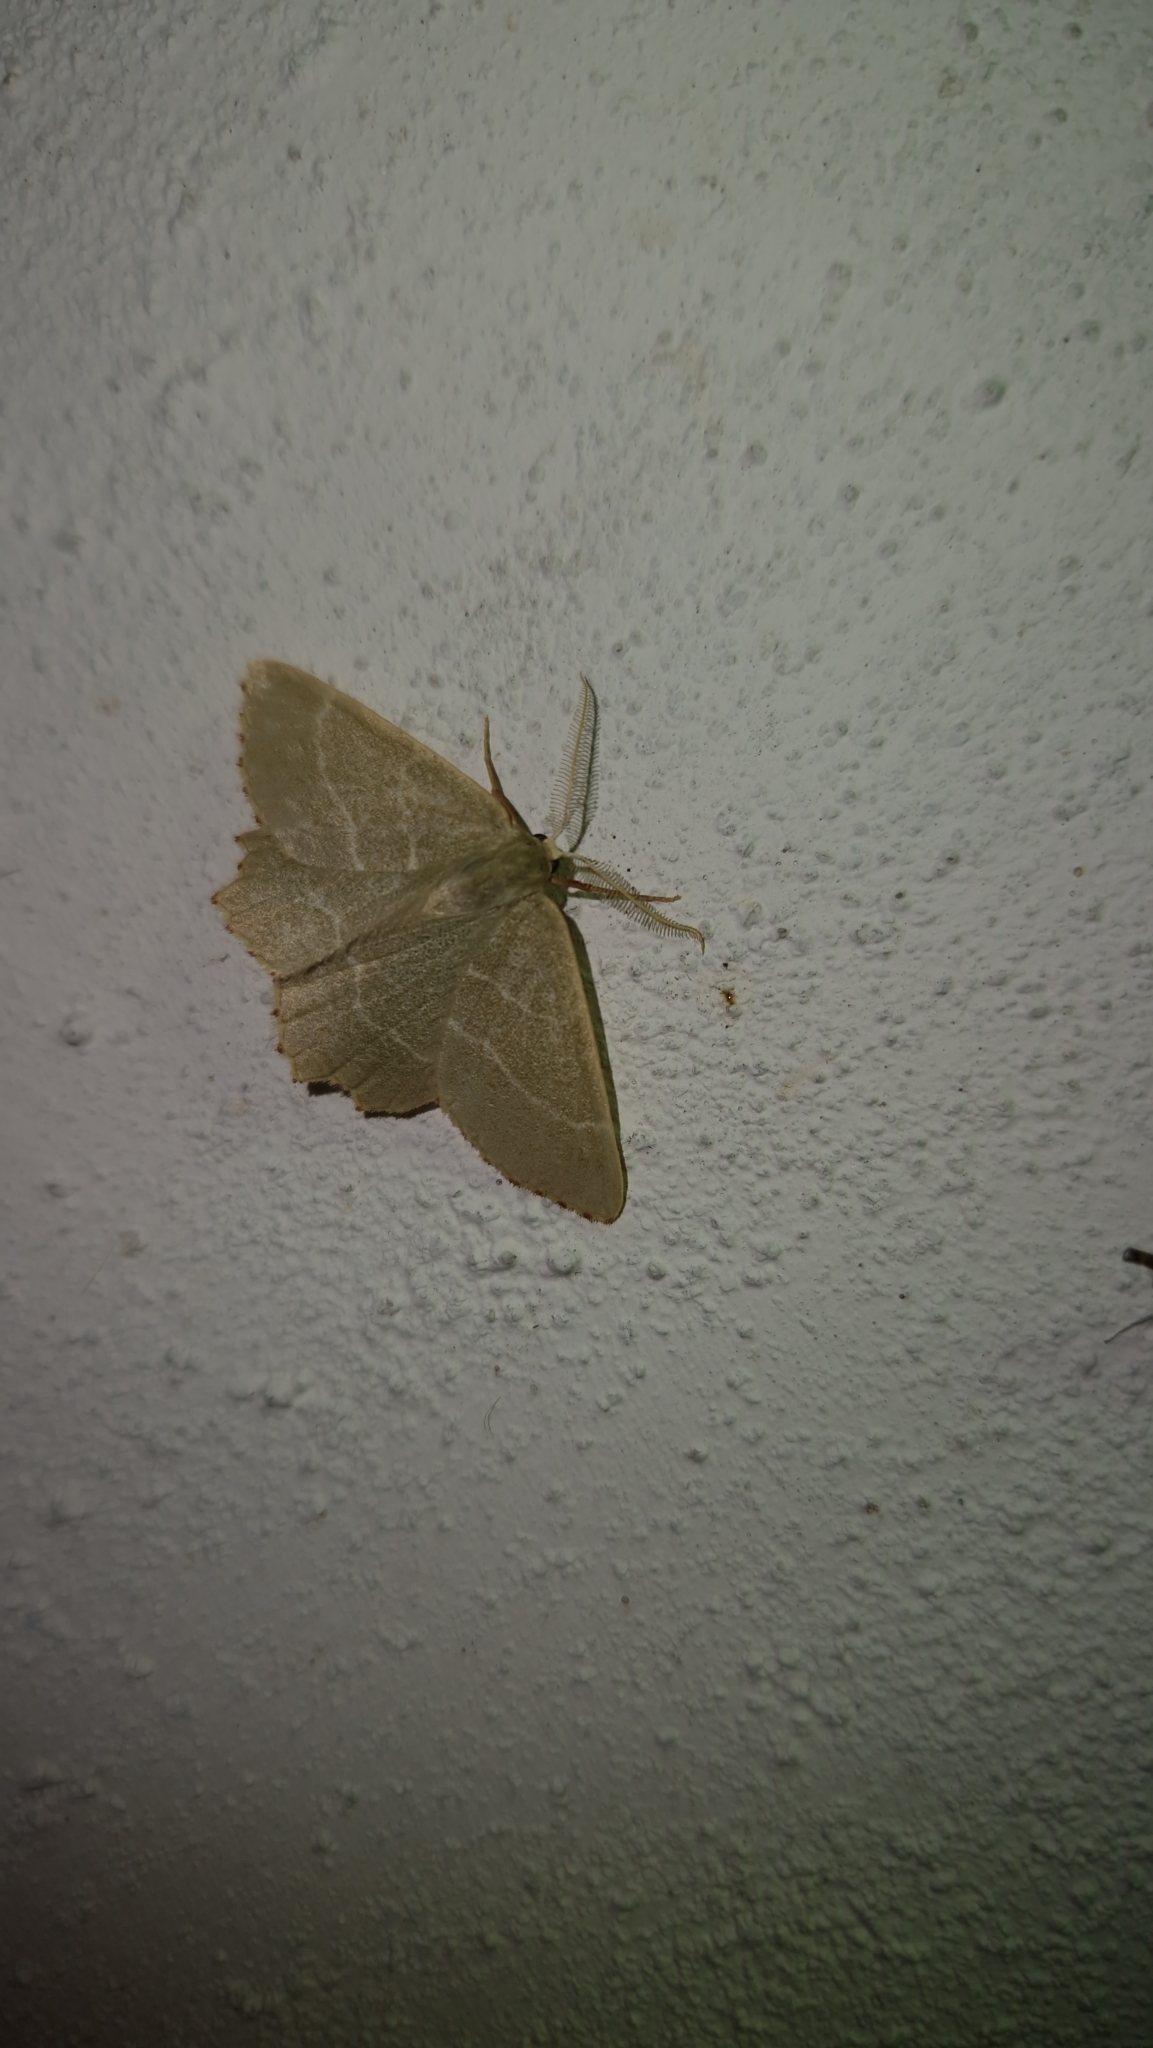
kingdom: Animalia
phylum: Arthropoda
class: Insecta
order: Lepidoptera
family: Geometridae
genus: Thalera
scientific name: Thalera fimbrialis
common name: Sussex emerald
